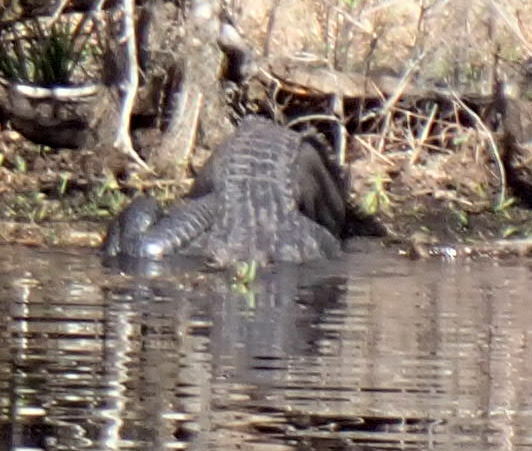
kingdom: Animalia
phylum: Chordata
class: Crocodylia
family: Alligatoridae
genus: Alligator
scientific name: Alligator mississippiensis
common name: American alligator
